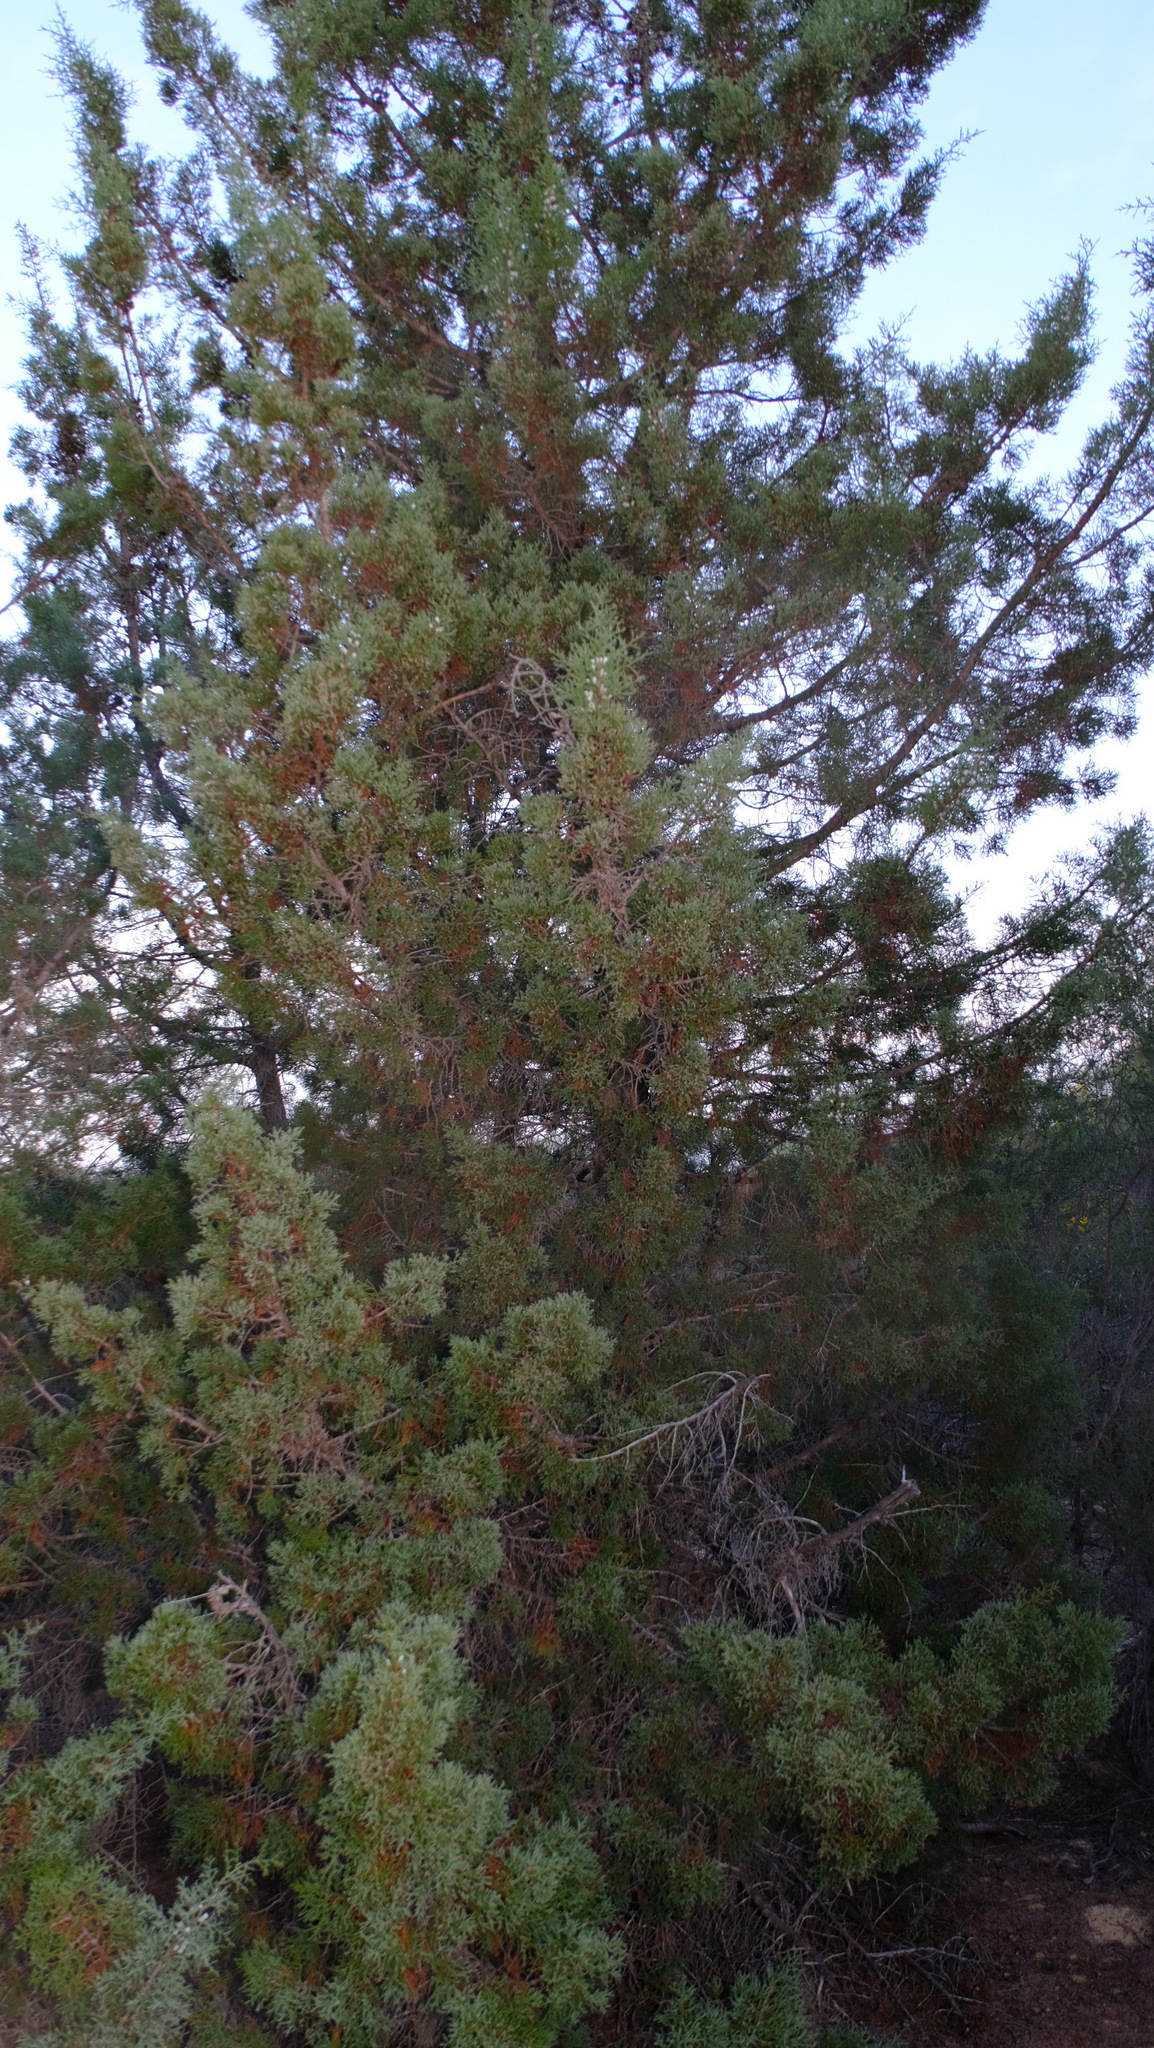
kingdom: Plantae
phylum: Tracheophyta
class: Pinopsida
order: Pinales
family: Cupressaceae
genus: Actinostrobus
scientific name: Actinostrobus arenarius
